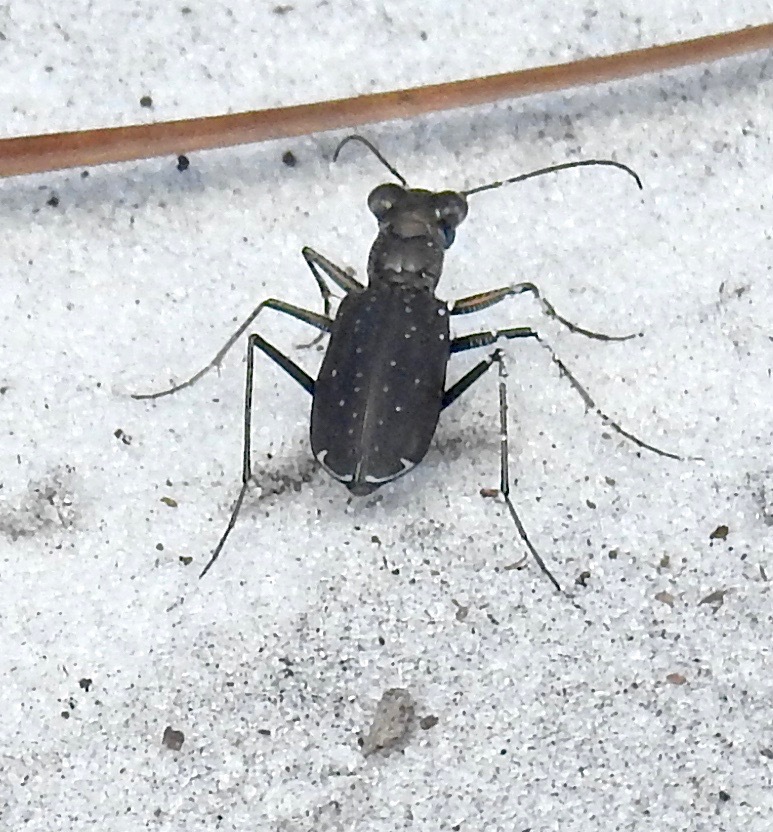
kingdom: Animalia
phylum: Arthropoda
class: Insecta
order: Coleoptera
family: Carabidae
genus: Cicindela
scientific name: Cicindela punctulata
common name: Punctured tiger beetle
